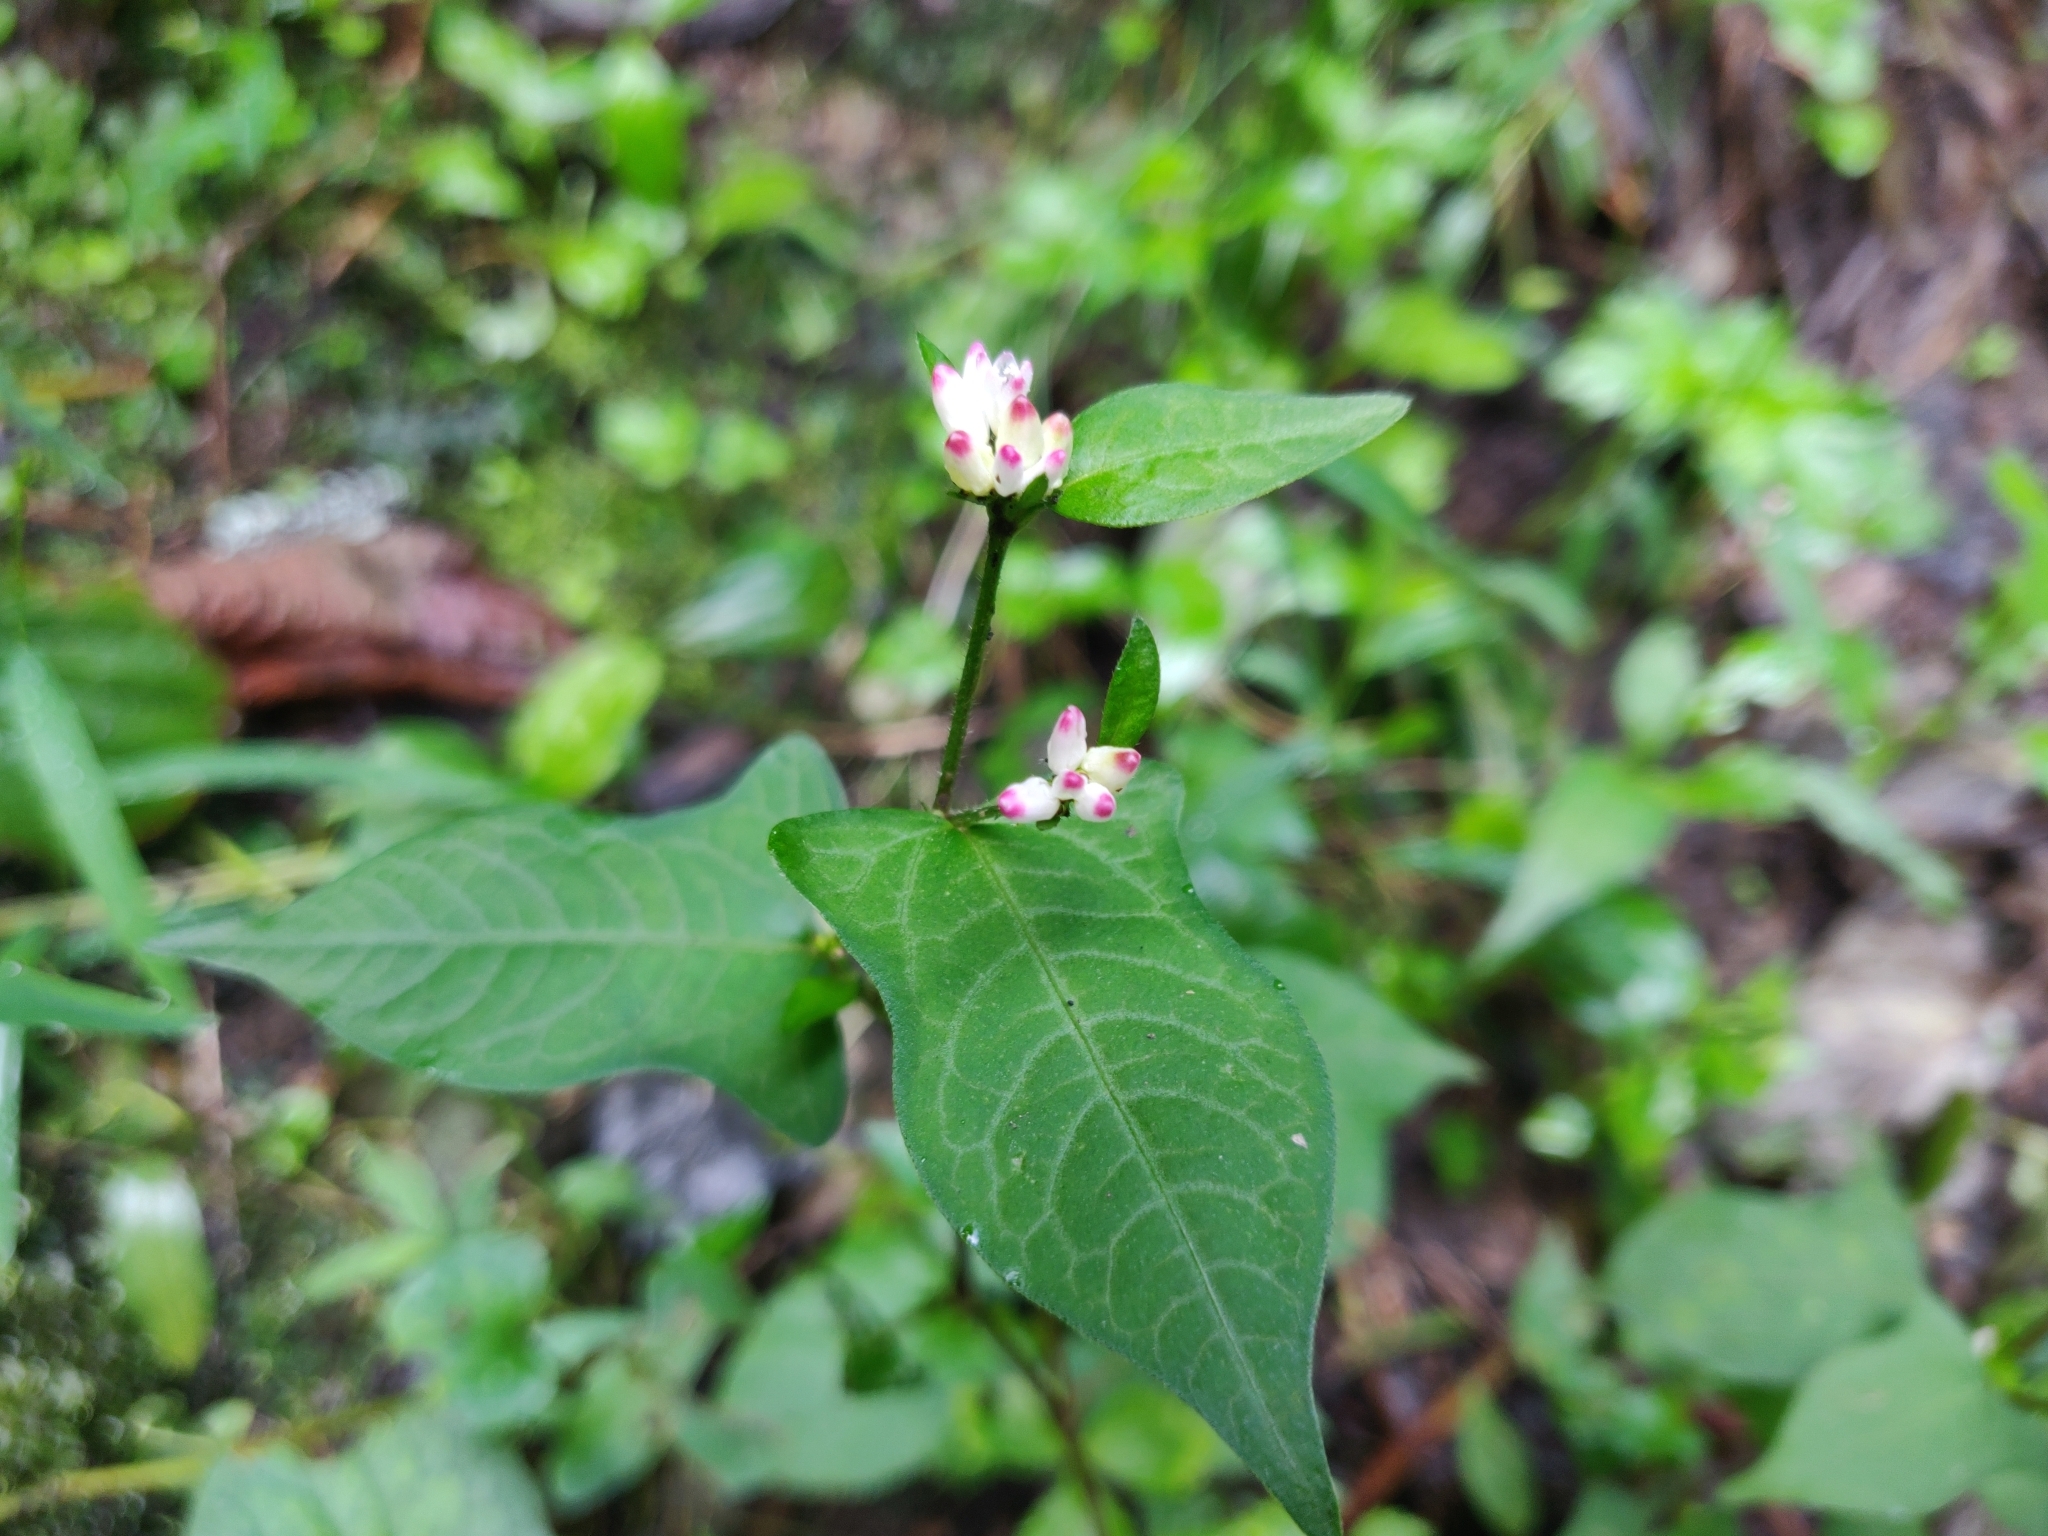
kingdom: Plantae
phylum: Tracheophyta
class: Magnoliopsida
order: Caryophyllales
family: Polygonaceae
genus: Persicaria
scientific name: Persicaria thunbergii
